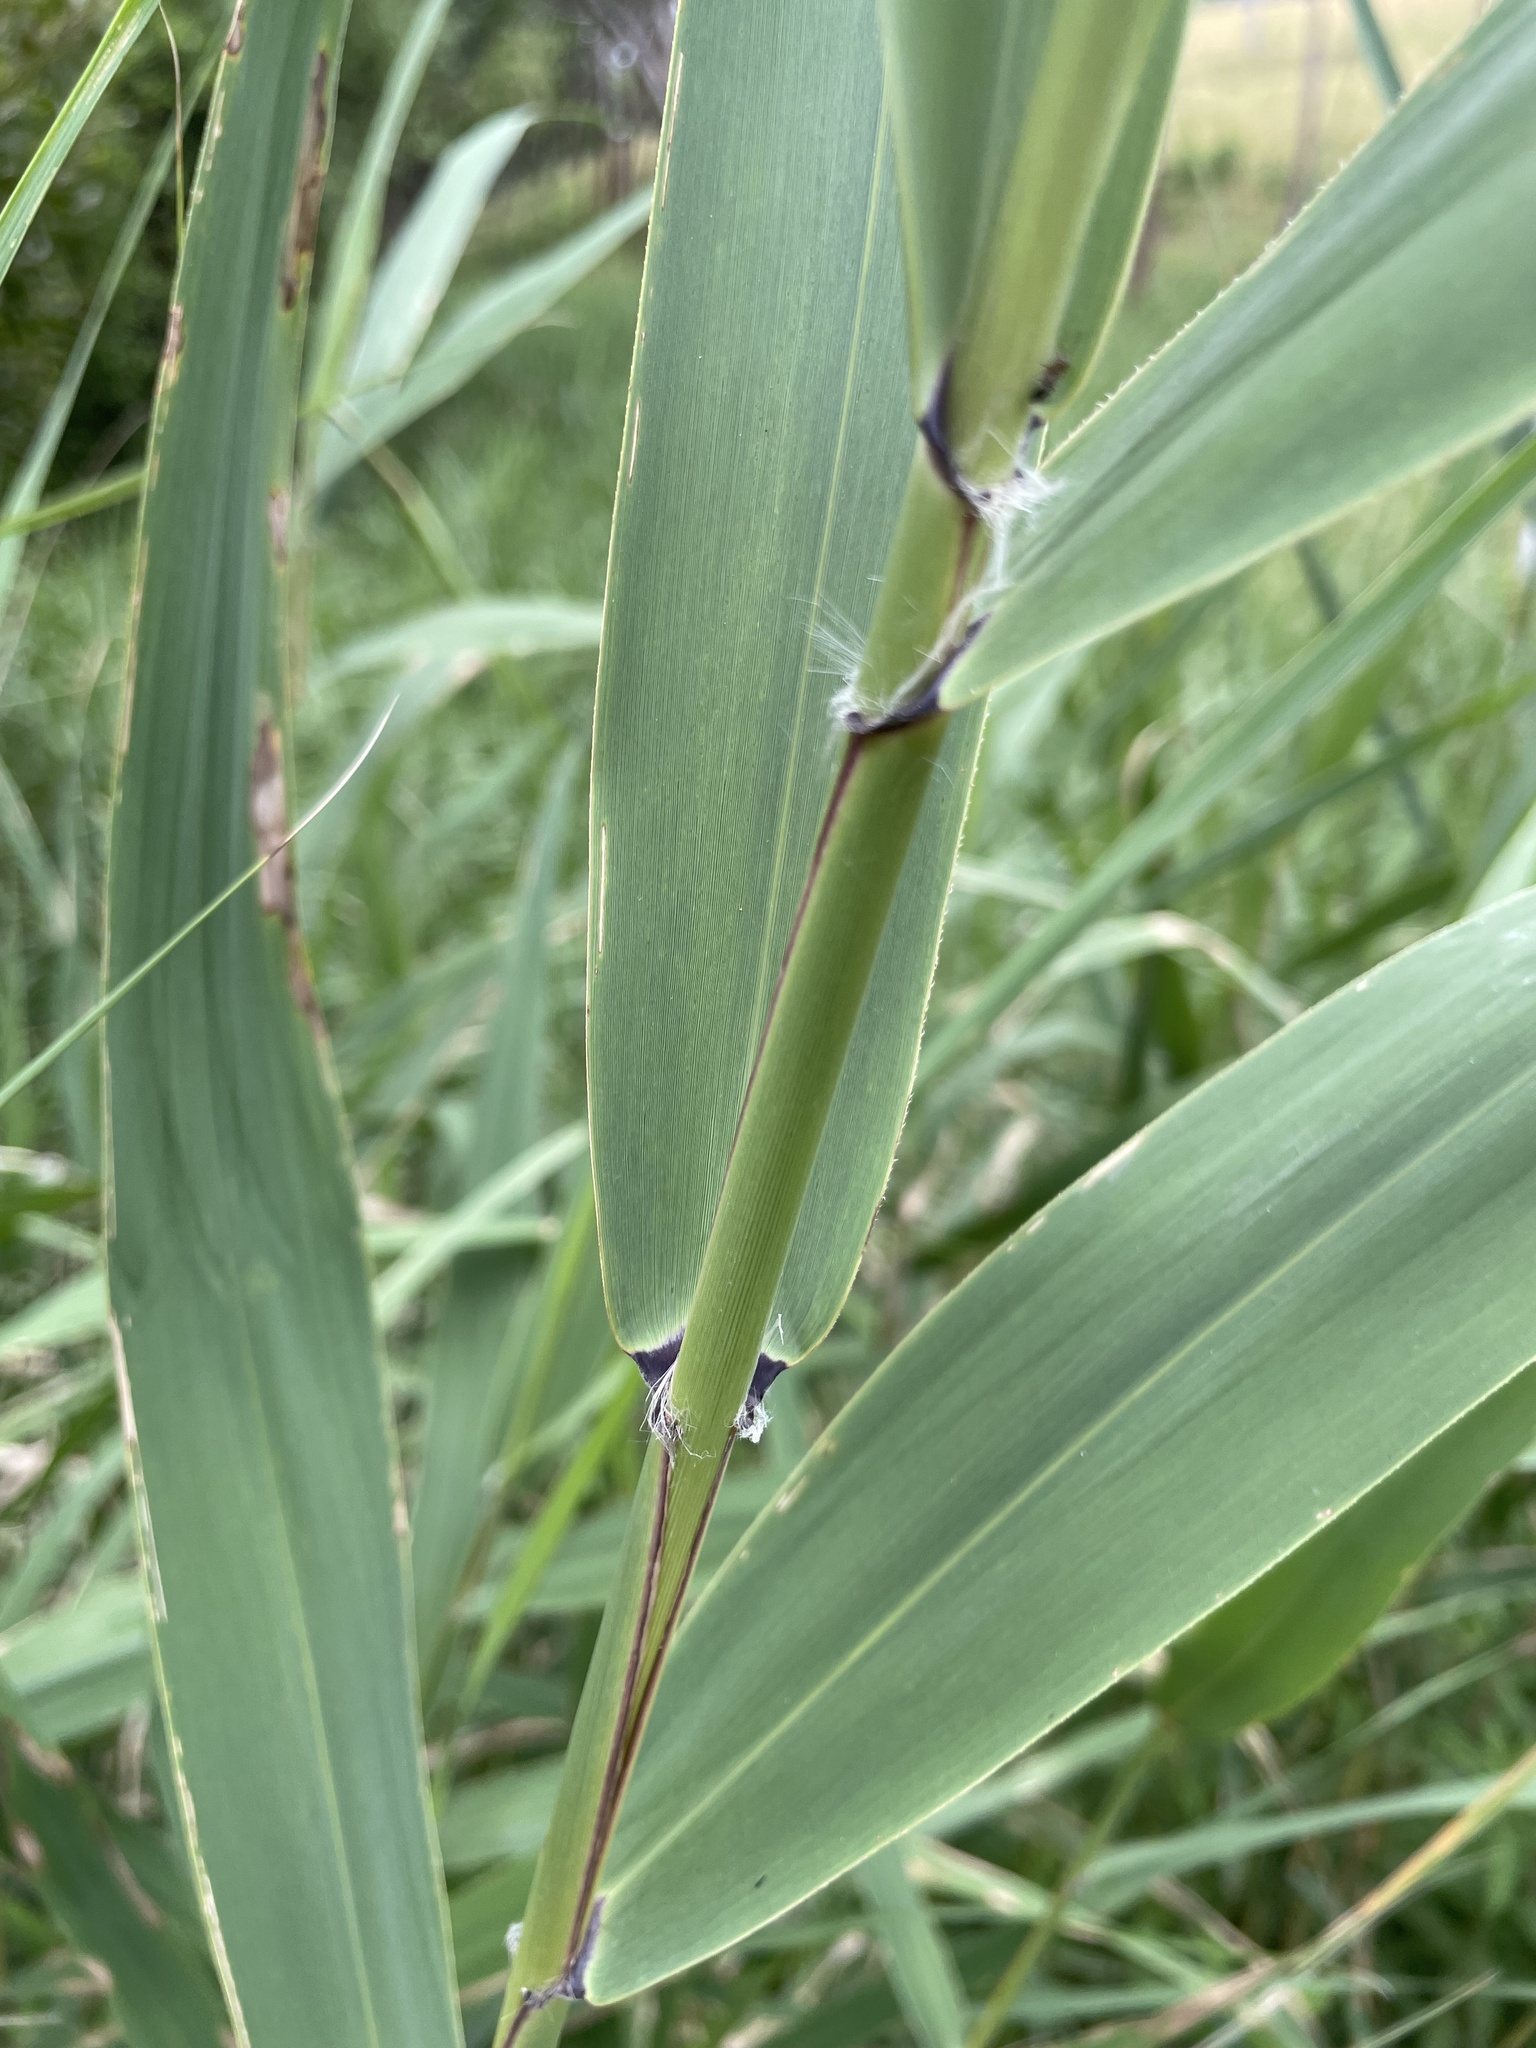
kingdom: Plantae
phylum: Tracheophyta
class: Liliopsida
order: Poales
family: Poaceae
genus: Phragmites
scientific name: Phragmites australis
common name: Common reed
